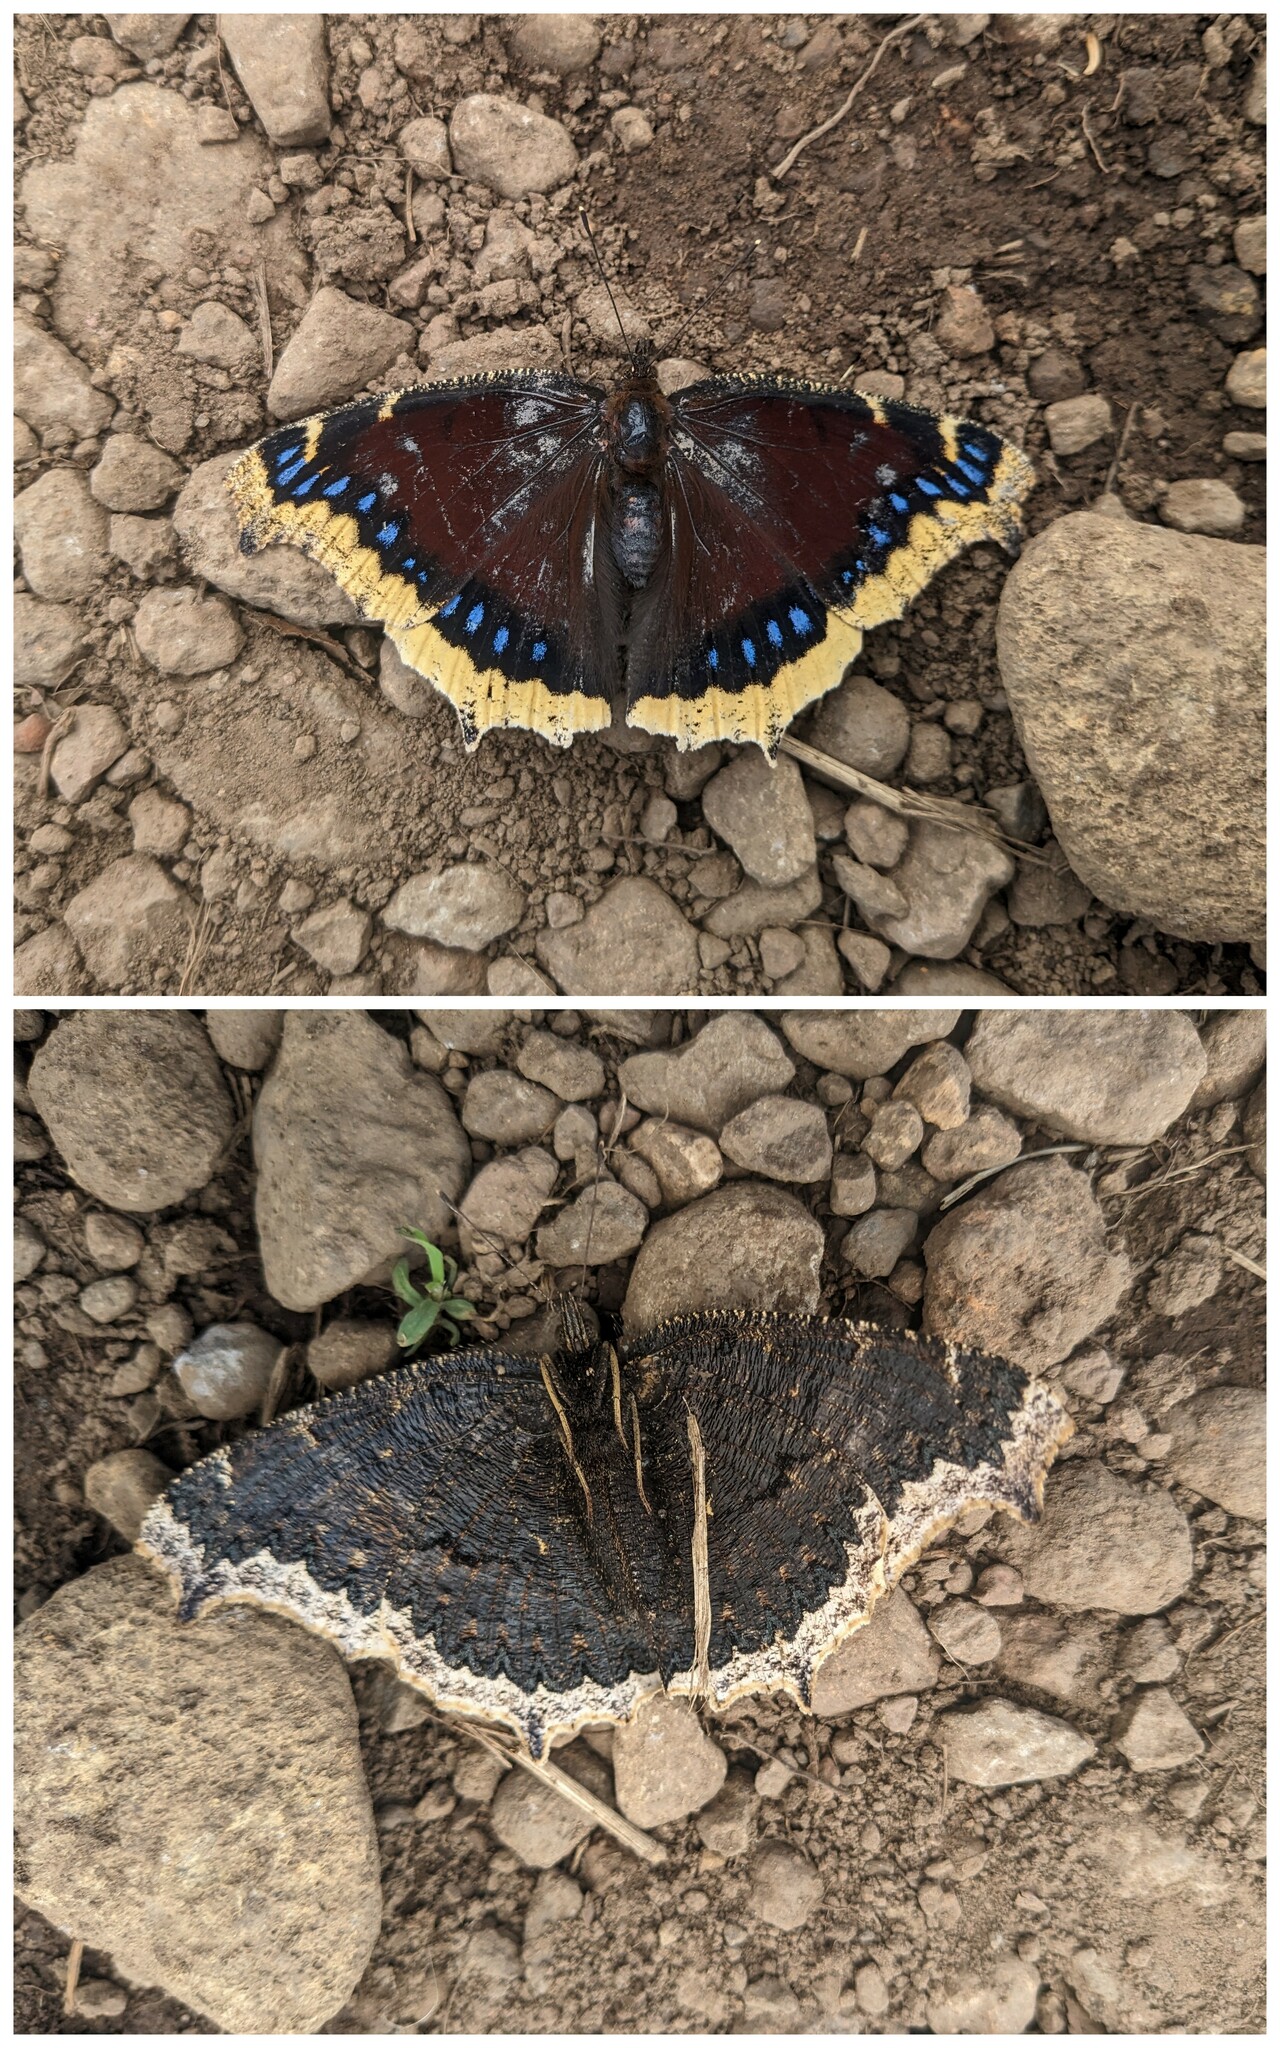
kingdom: Animalia
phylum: Arthropoda
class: Insecta
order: Lepidoptera
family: Nymphalidae
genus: Nymphalis
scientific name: Nymphalis antiopa
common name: Camberwell beauty
